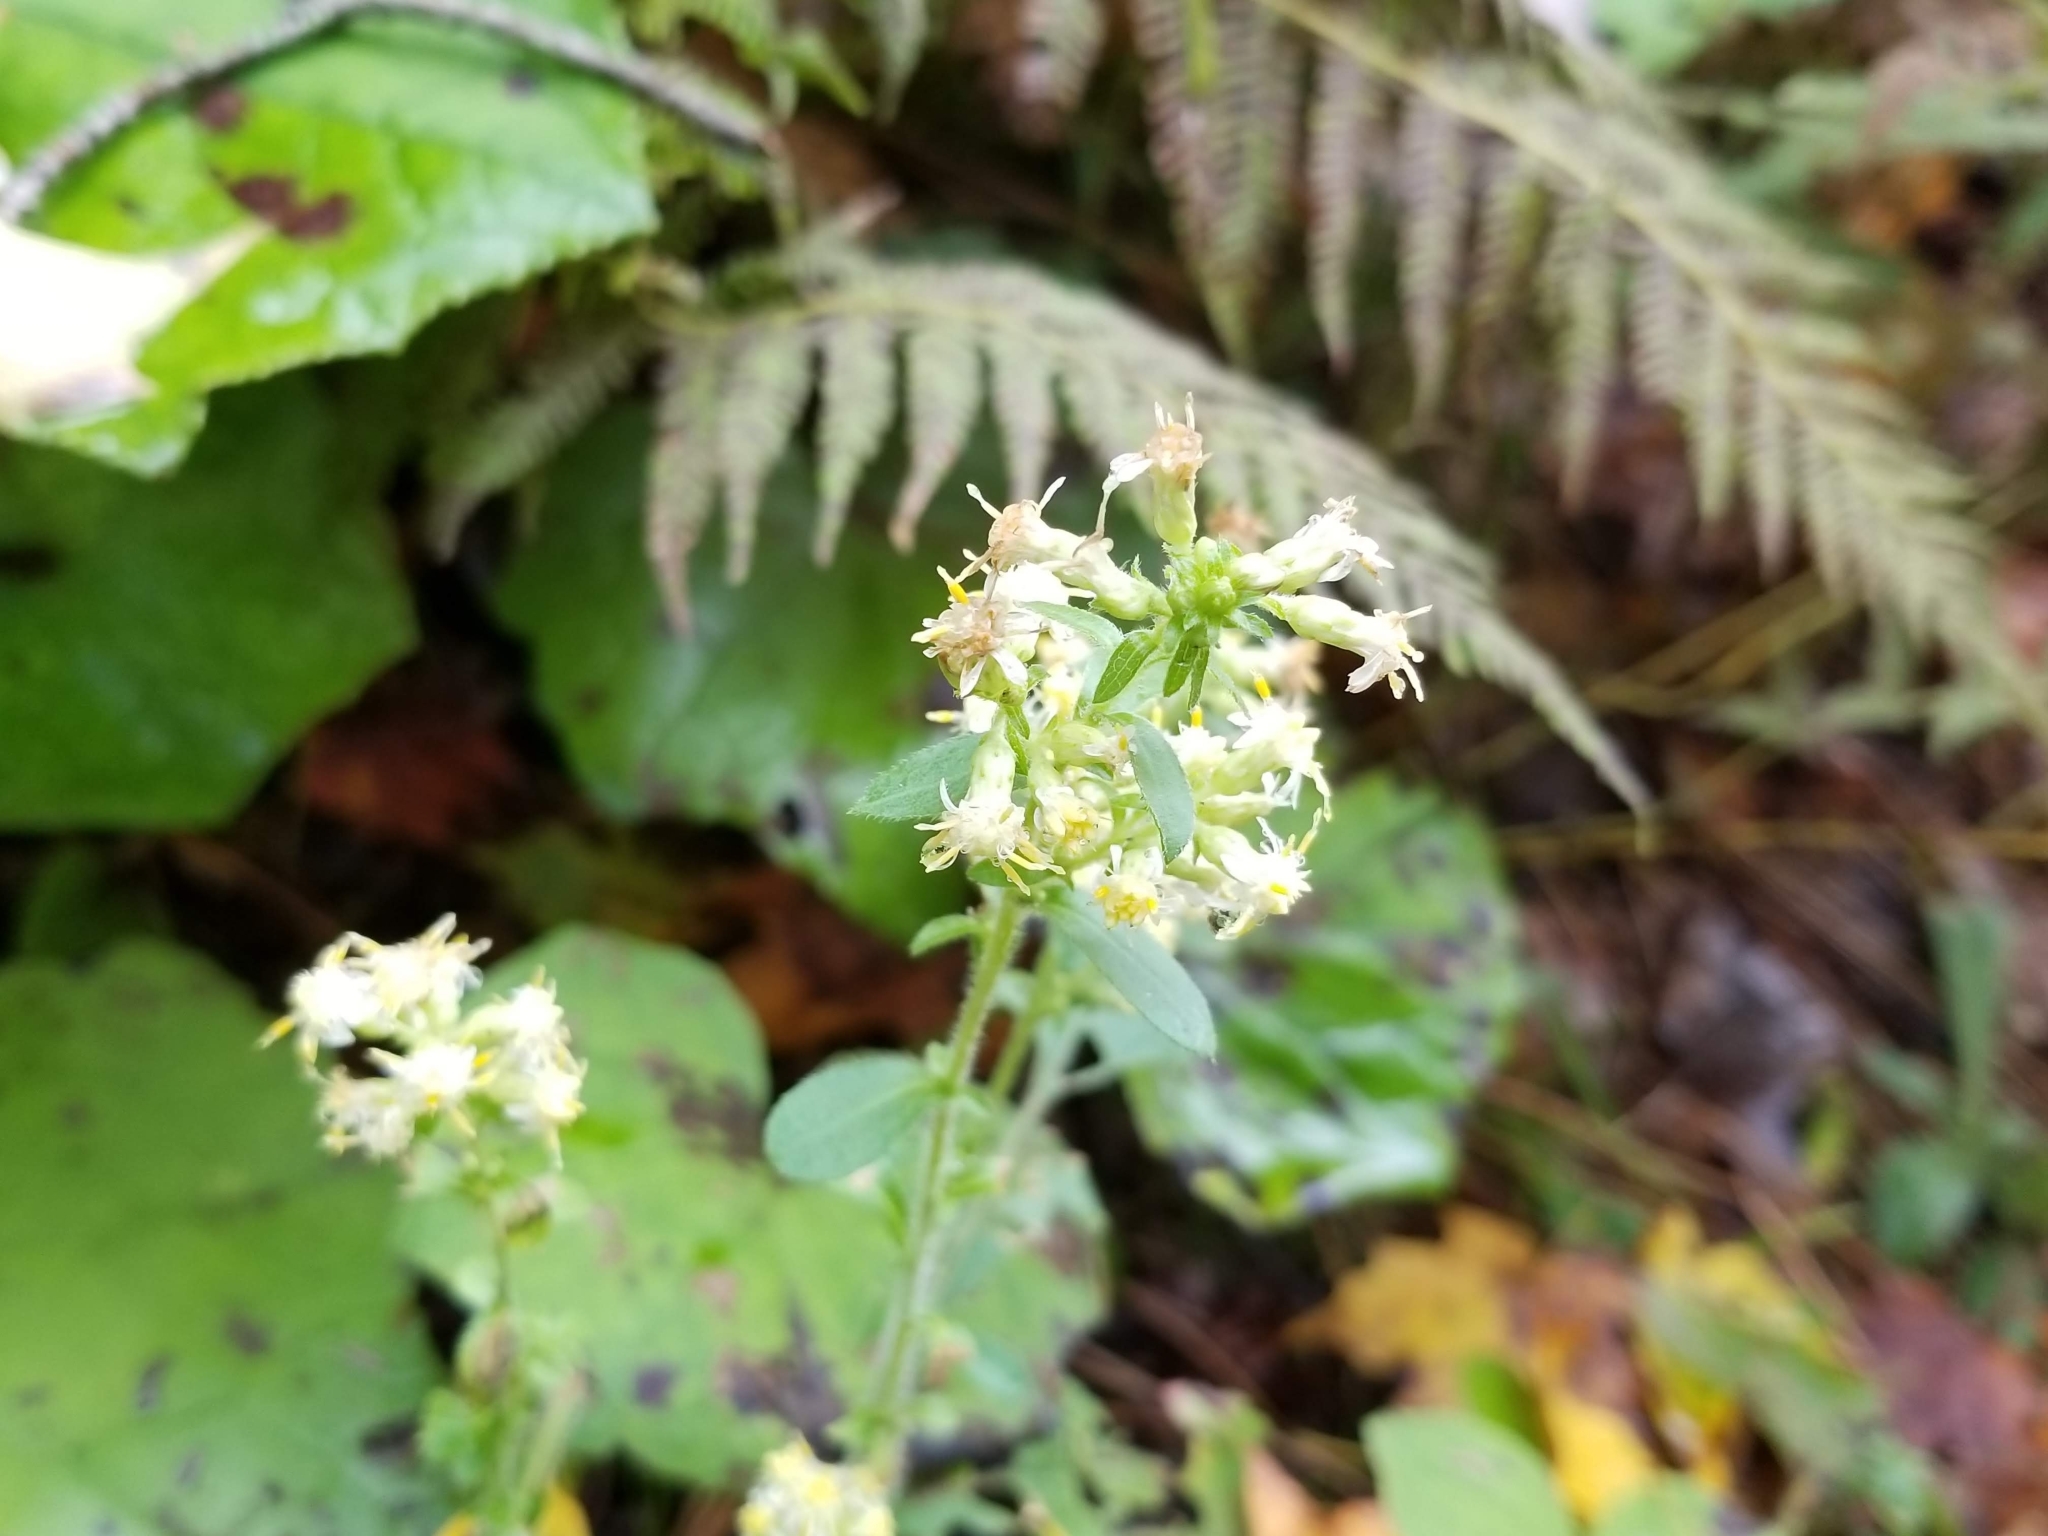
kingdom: Plantae
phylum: Tracheophyta
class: Magnoliopsida
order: Asterales
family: Asteraceae
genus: Solidago
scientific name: Solidago bicolor
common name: Silverrod
